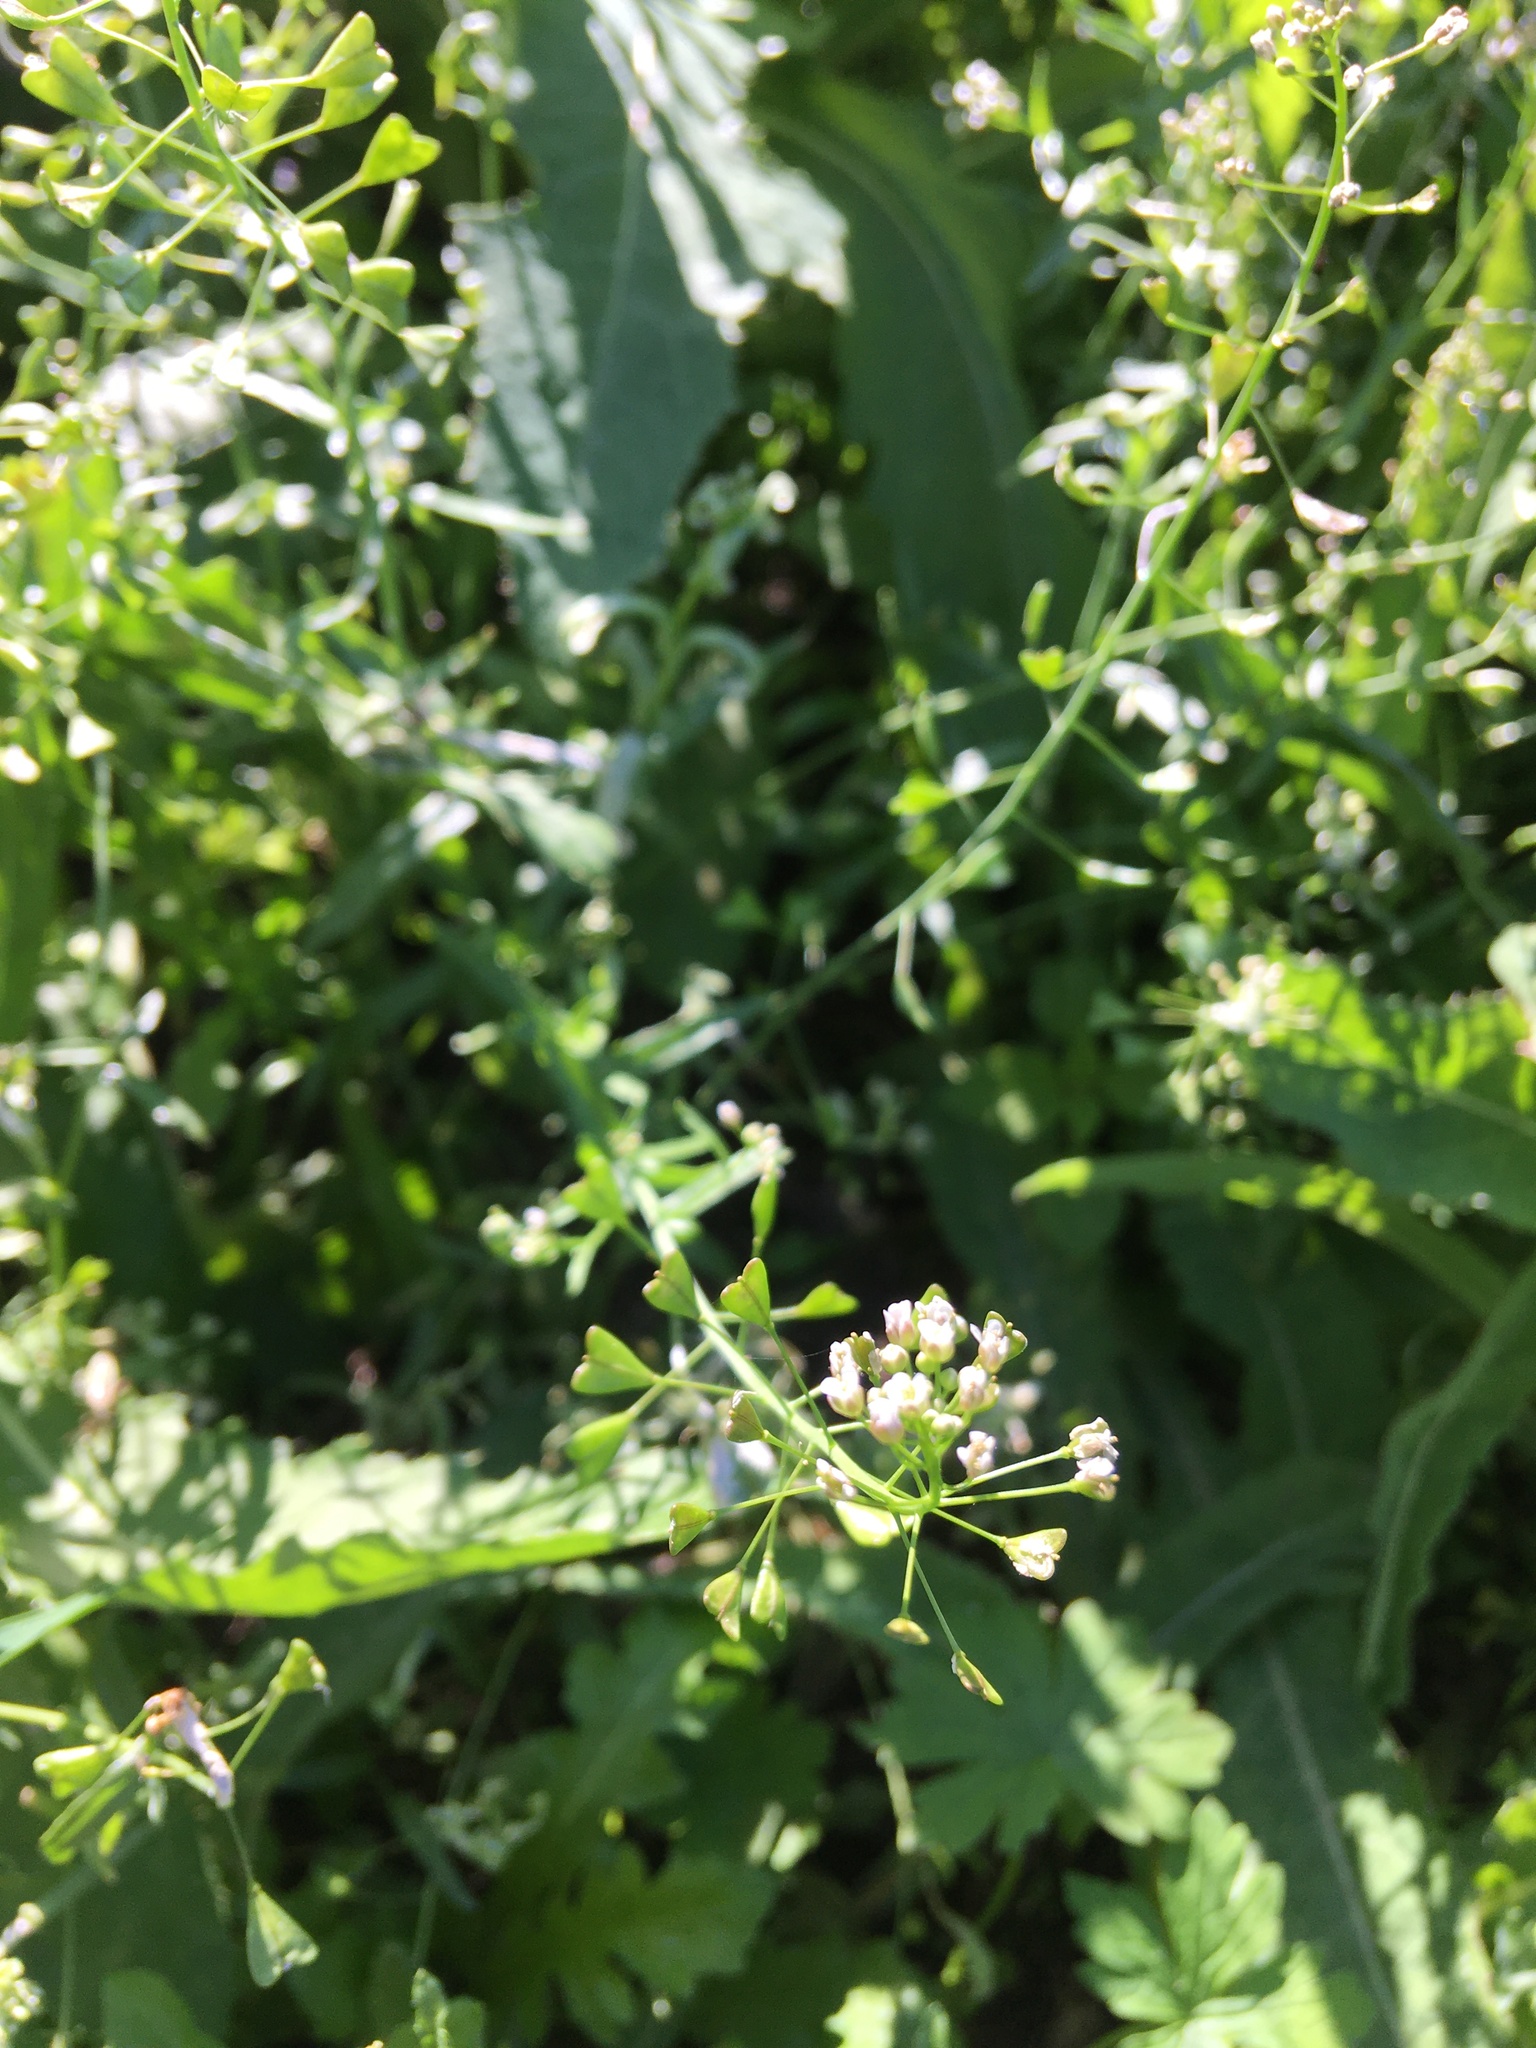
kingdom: Plantae
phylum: Tracheophyta
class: Magnoliopsida
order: Brassicales
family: Brassicaceae
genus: Capsella
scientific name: Capsella bursa-pastoris
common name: Shepherd's purse
